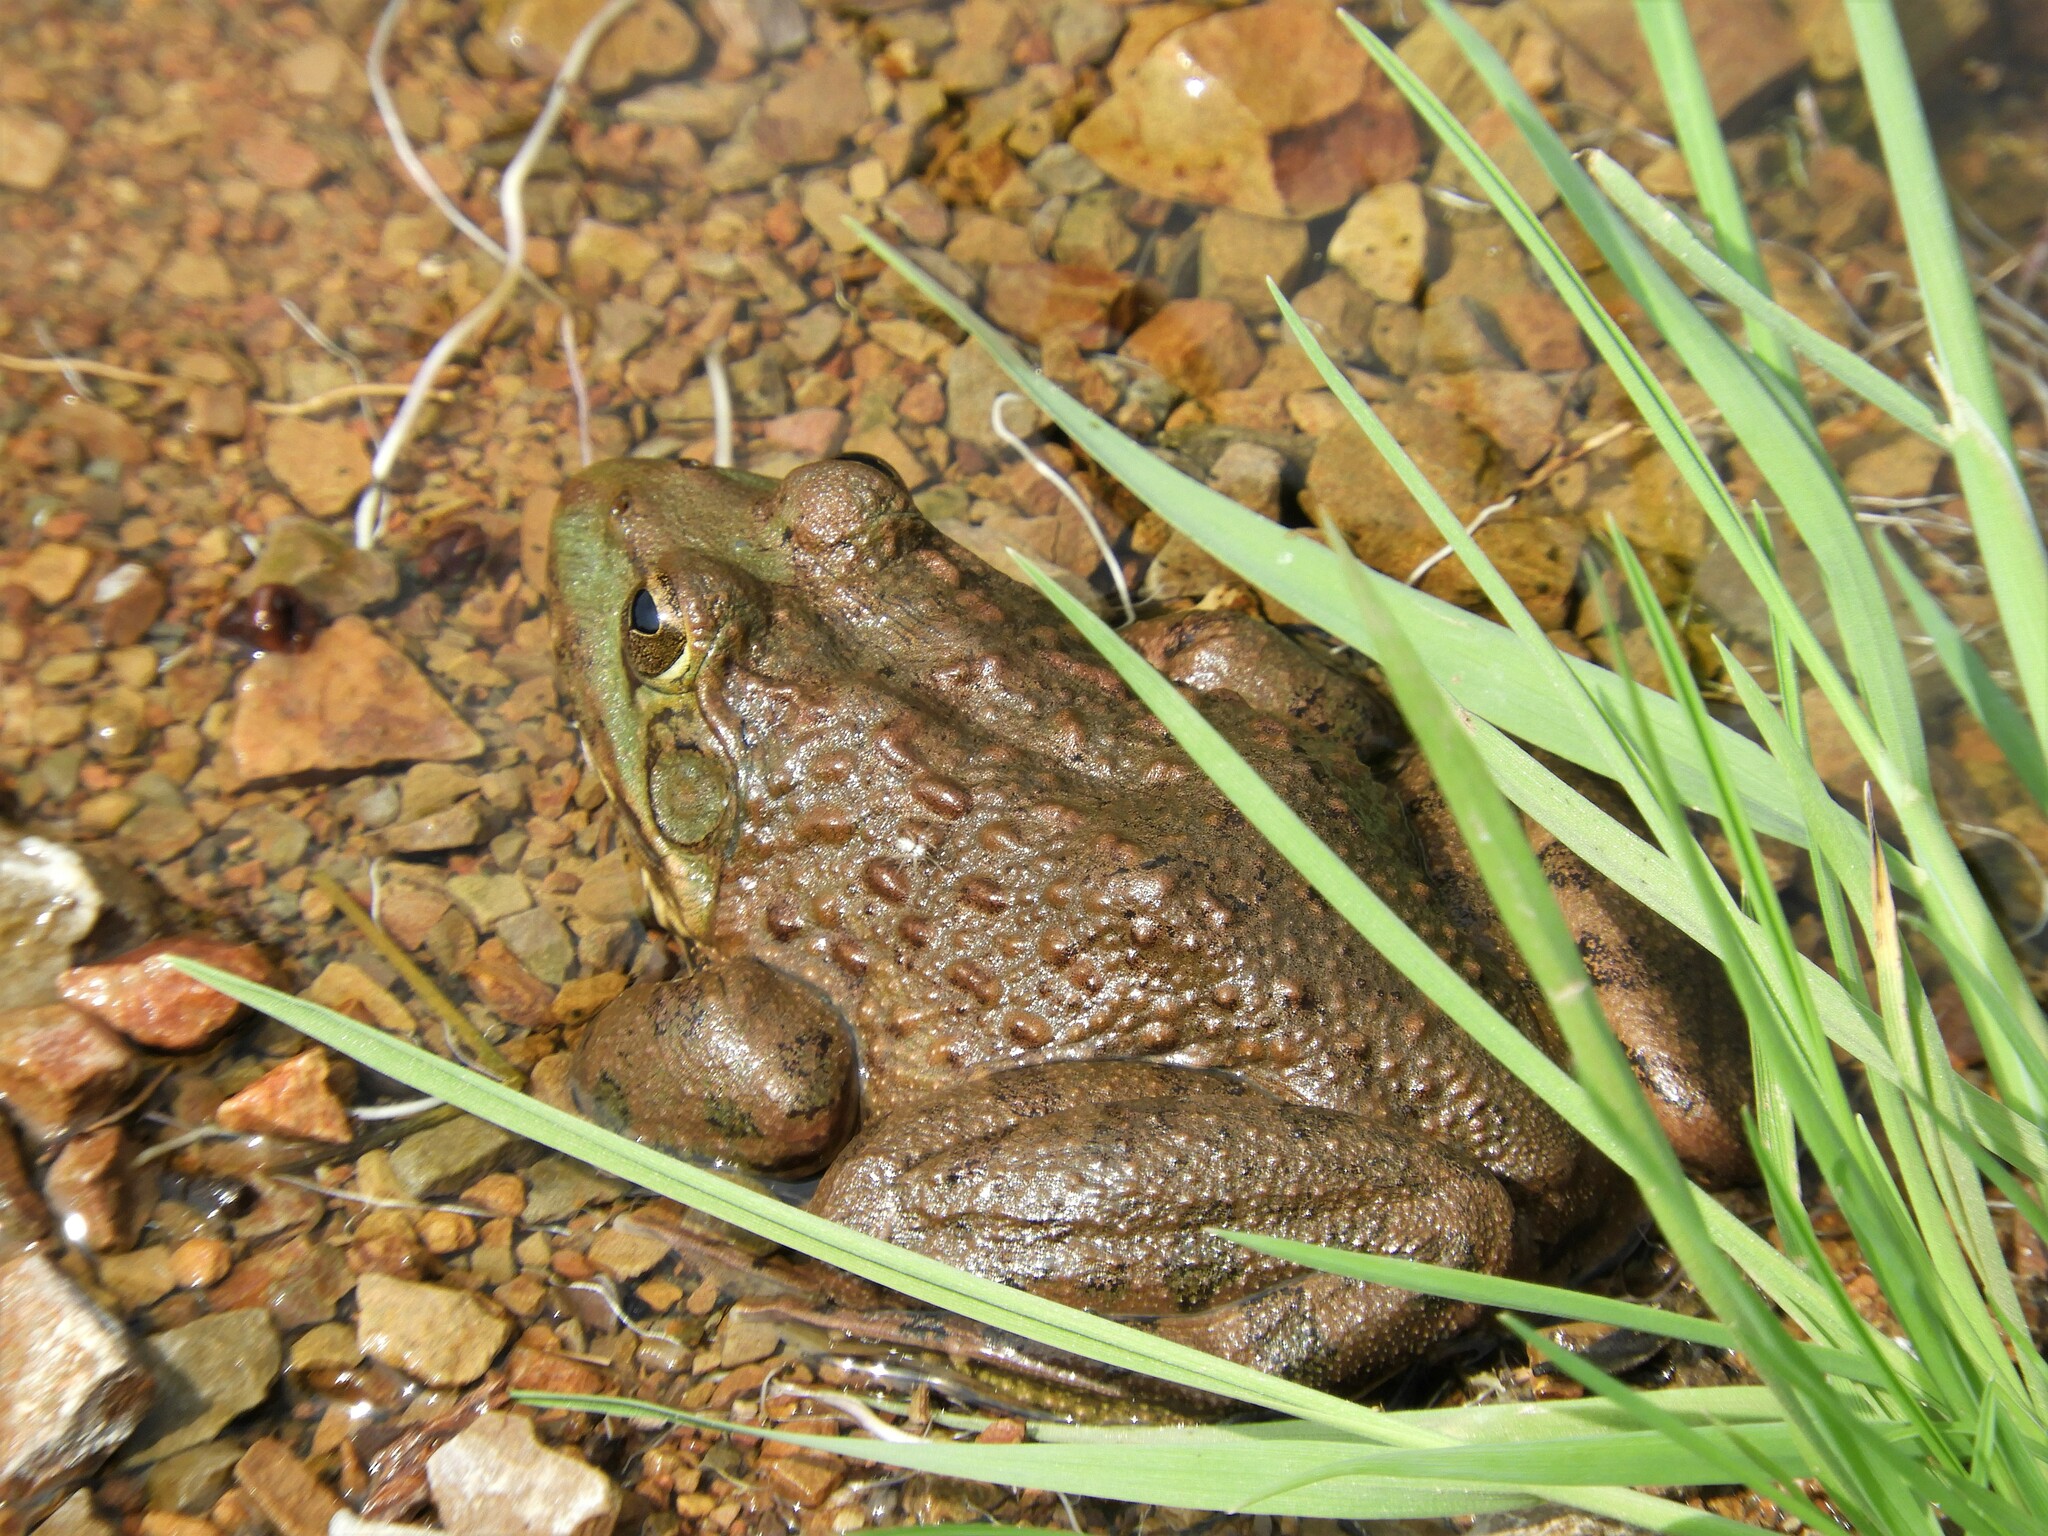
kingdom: Animalia
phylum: Chordata
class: Amphibia
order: Anura
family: Pyxicephalidae
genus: Amietia
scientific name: Amietia poyntoni
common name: Poynton's river frog
